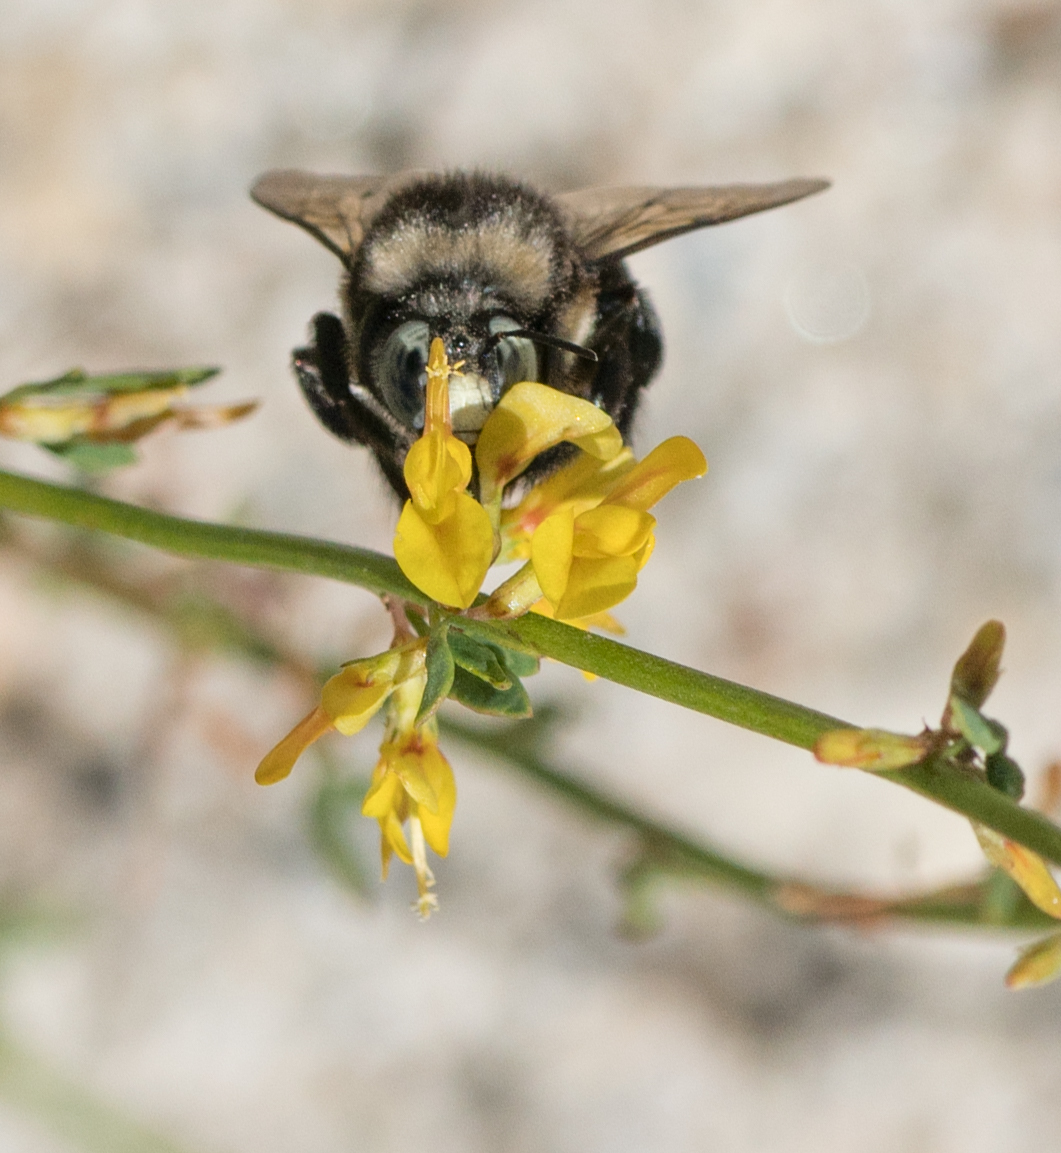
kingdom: Animalia
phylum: Arthropoda
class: Insecta
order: Hymenoptera
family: Apidae
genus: Xylocopa
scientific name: Xylocopa tabaniformis
